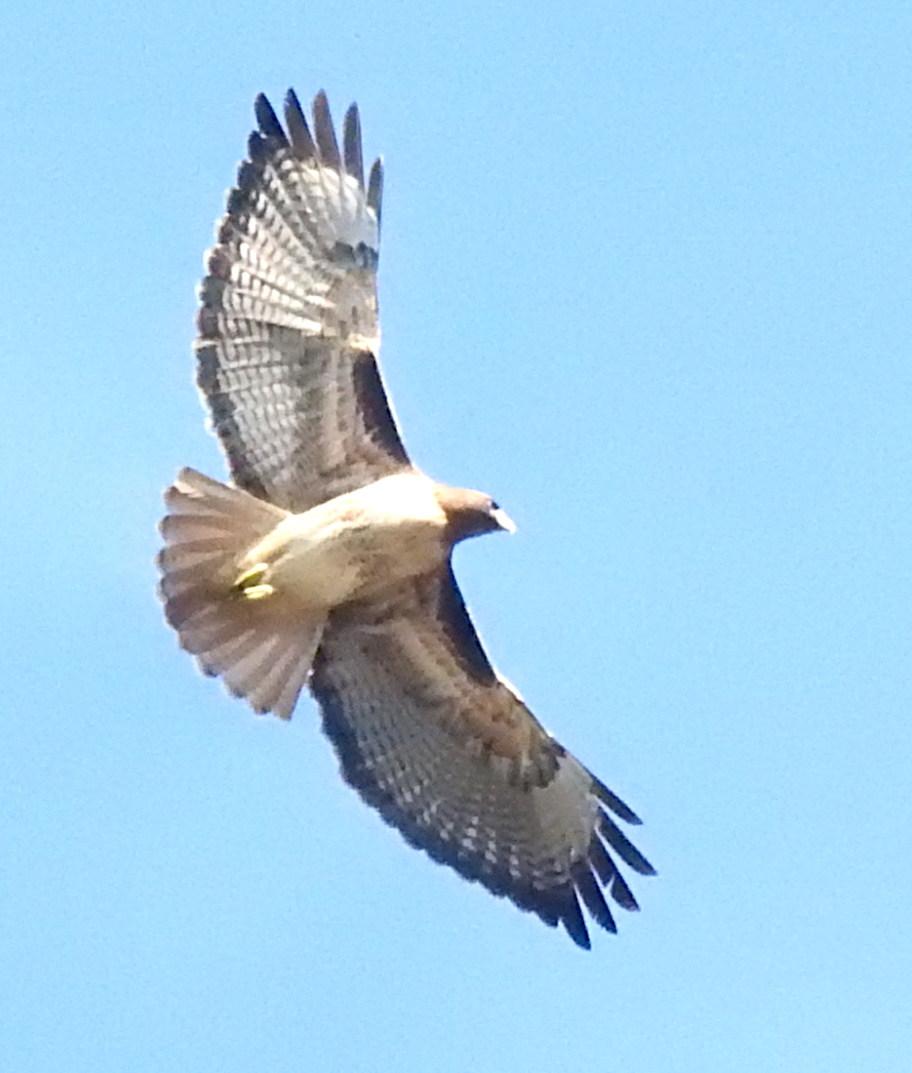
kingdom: Animalia
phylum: Chordata
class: Aves
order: Accipitriformes
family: Accipitridae
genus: Buteo
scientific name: Buteo jamaicensis
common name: Red-tailed hawk
